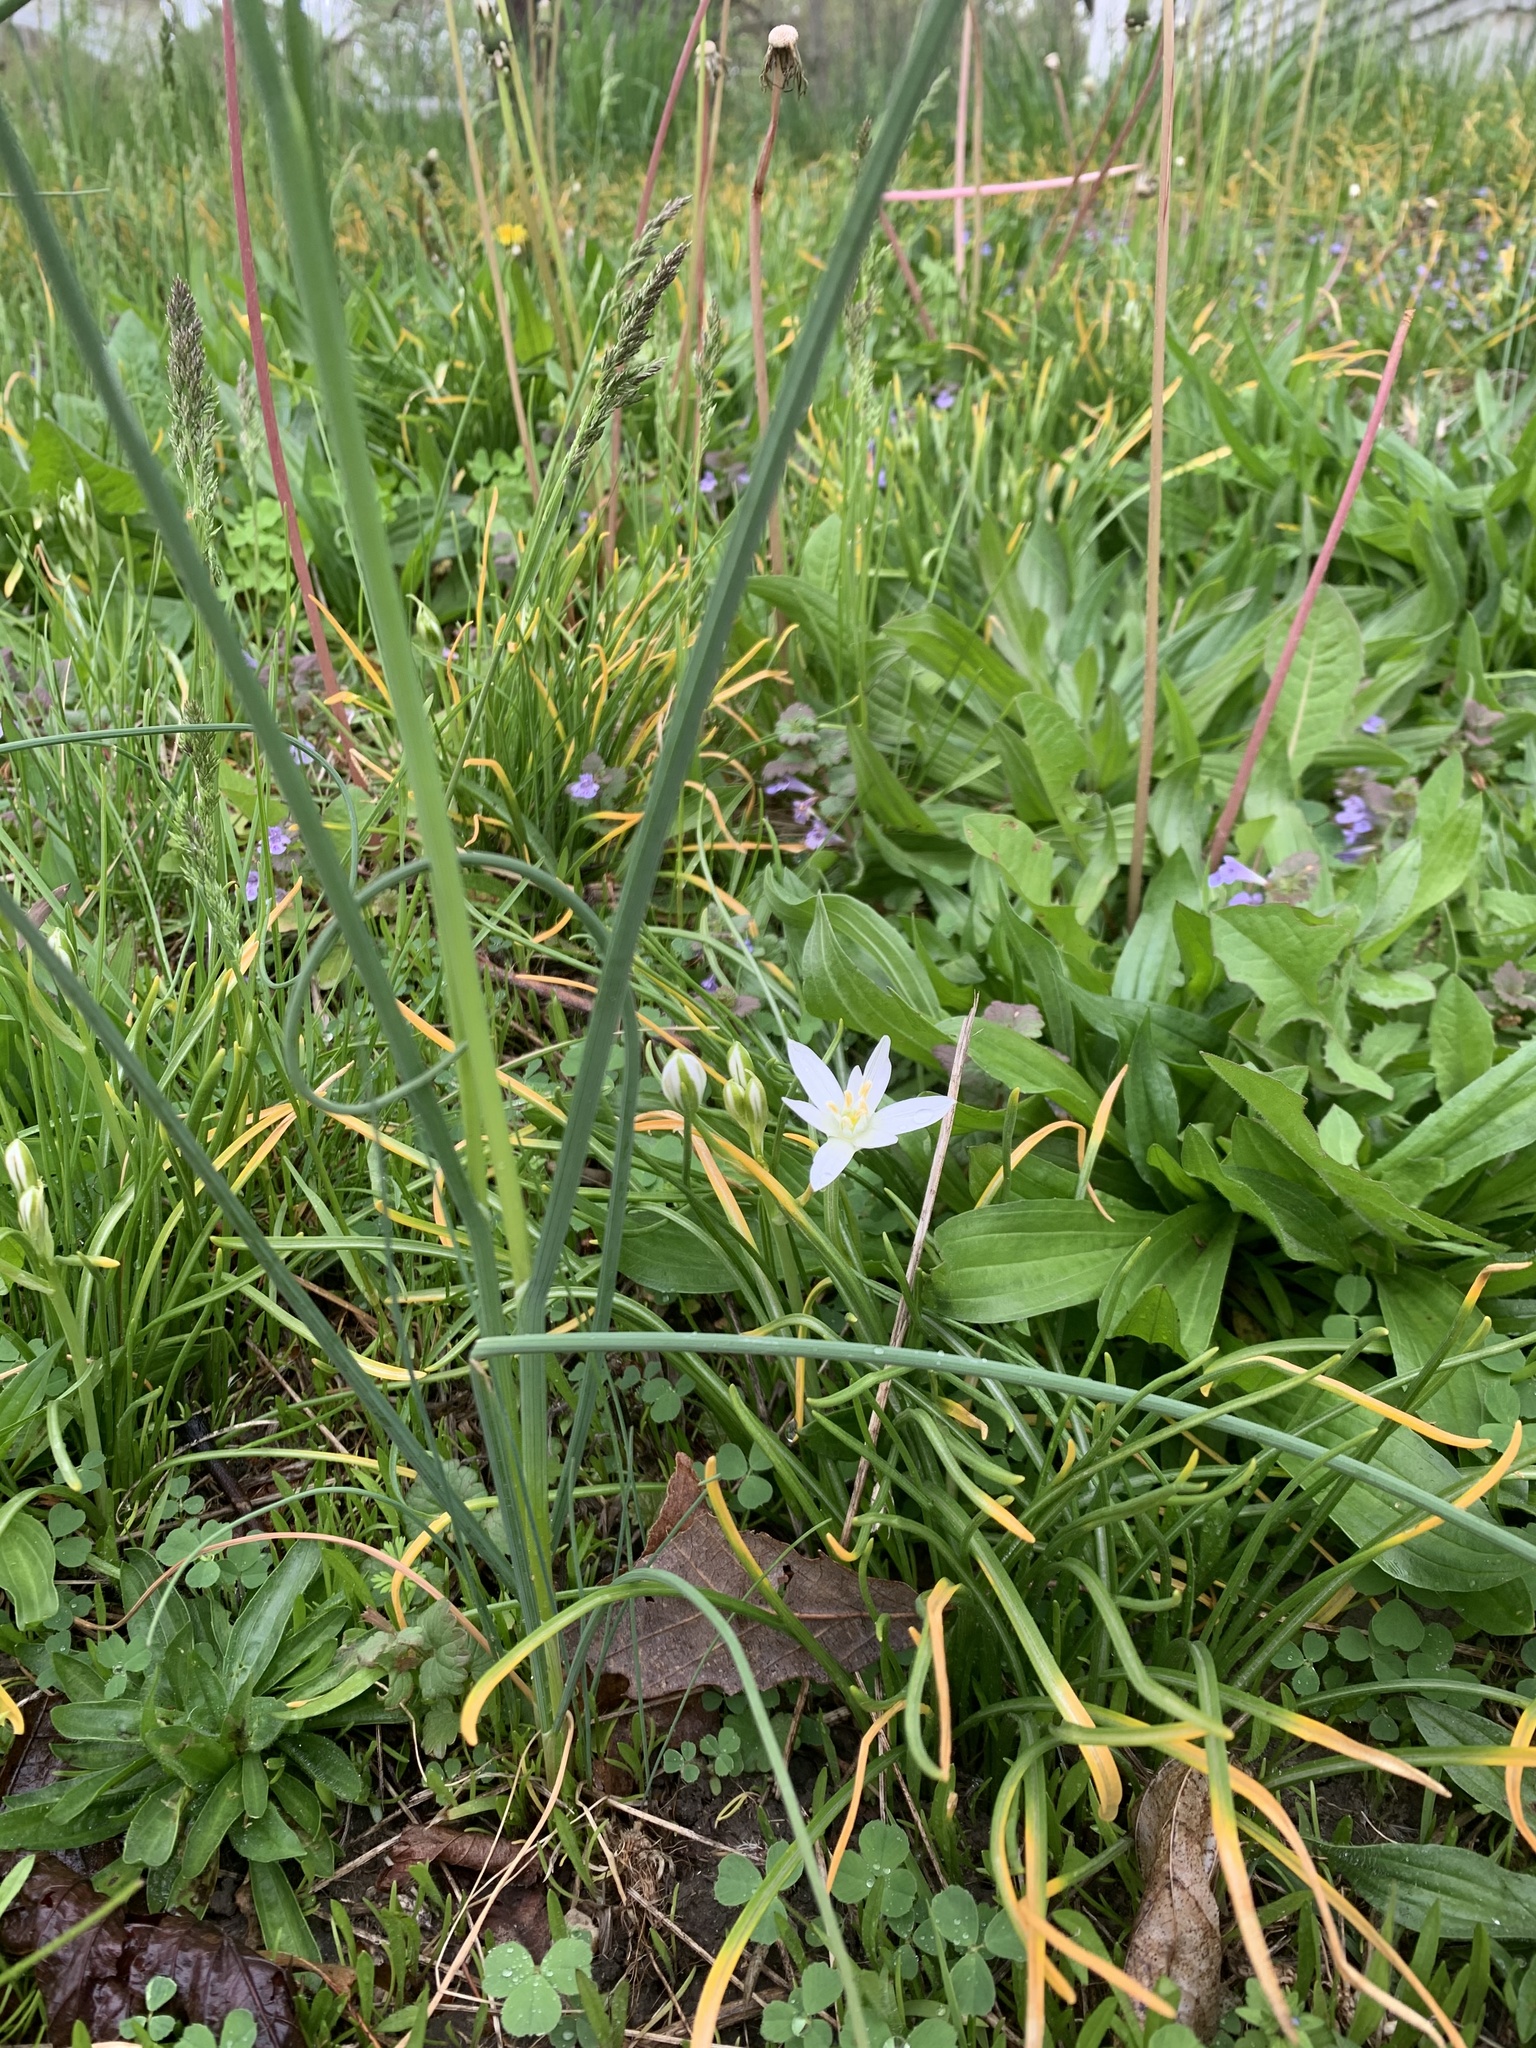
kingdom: Plantae
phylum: Tracheophyta
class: Liliopsida
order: Asparagales
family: Asparagaceae
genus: Ornithogalum
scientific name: Ornithogalum umbellatum
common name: Garden star-of-bethlehem
